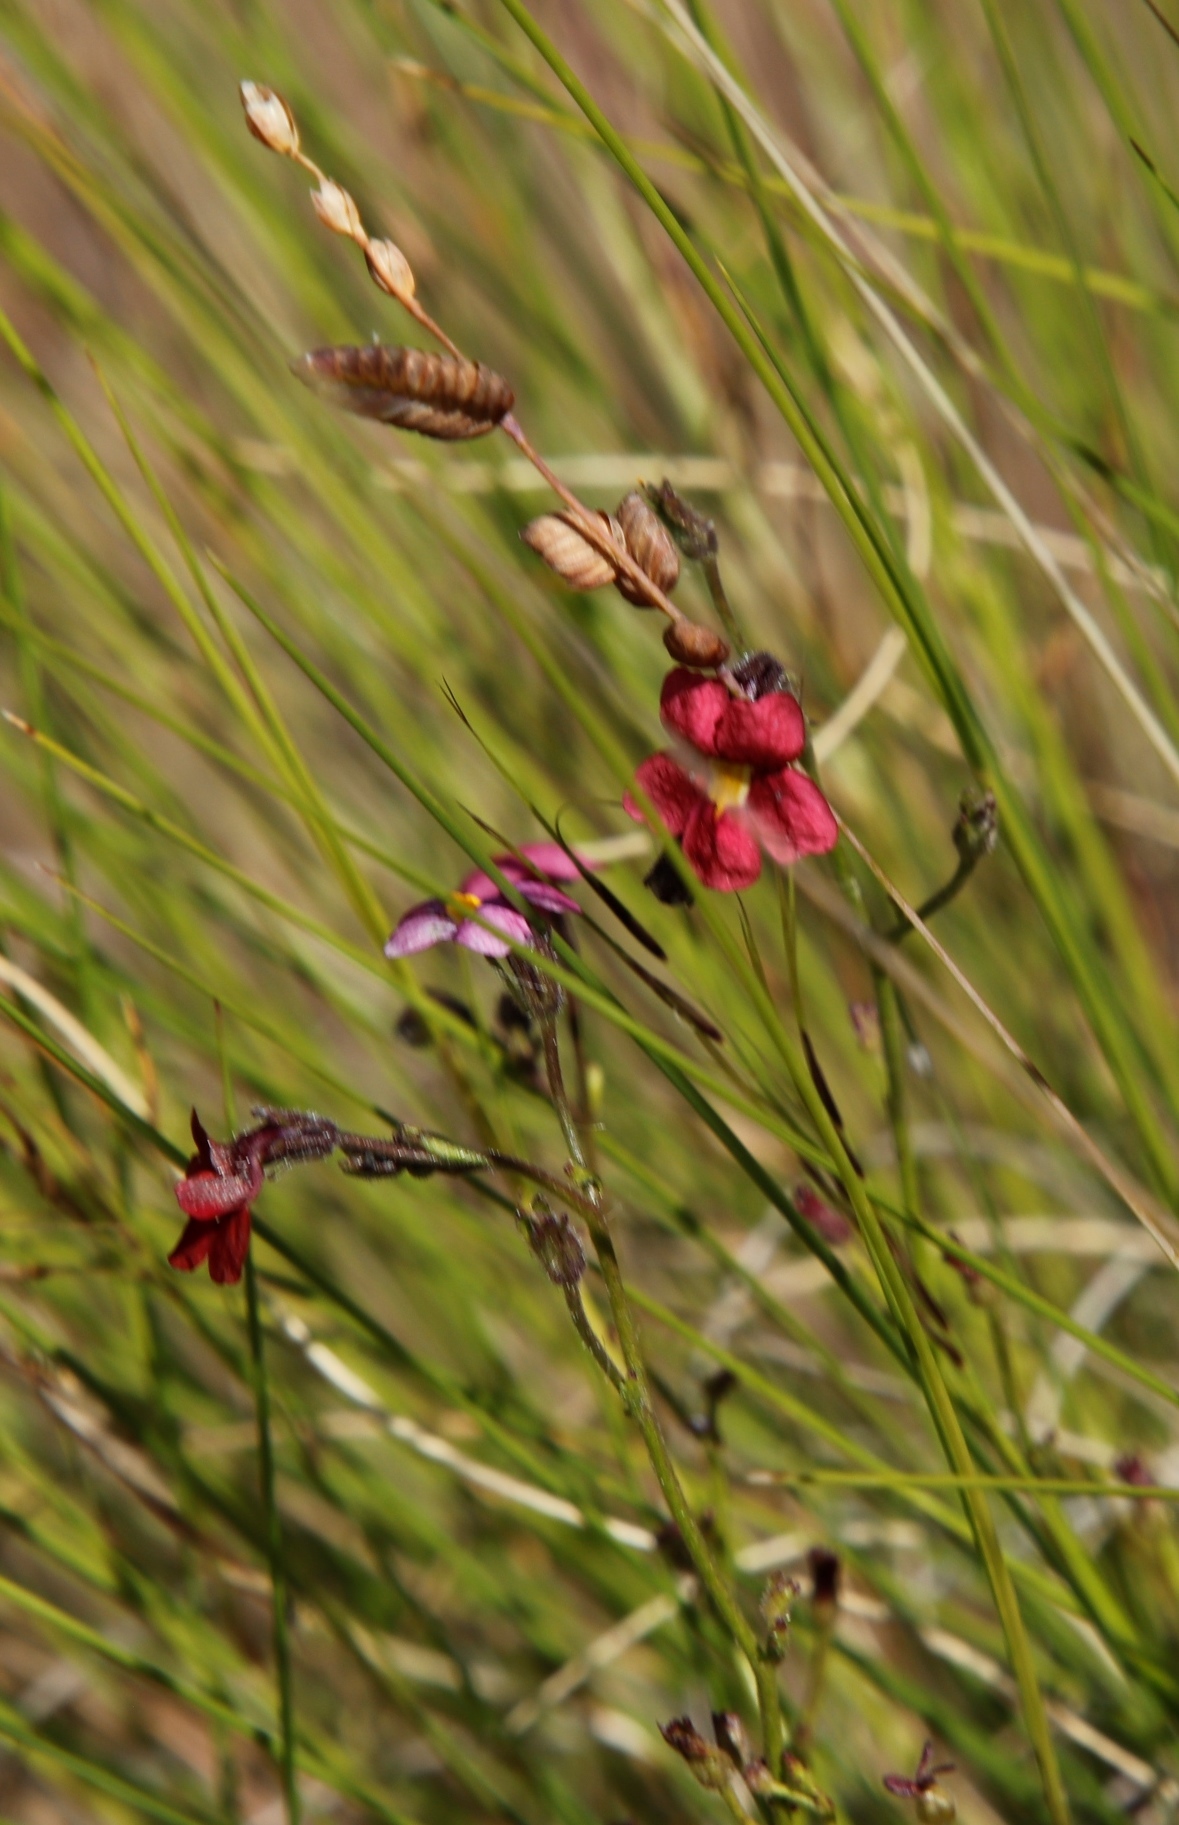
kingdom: Plantae
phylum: Tracheophyta
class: Magnoliopsida
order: Lamiales
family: Scrophulariaceae
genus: Jamesbrittenia
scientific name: Jamesbrittenia breviflora
